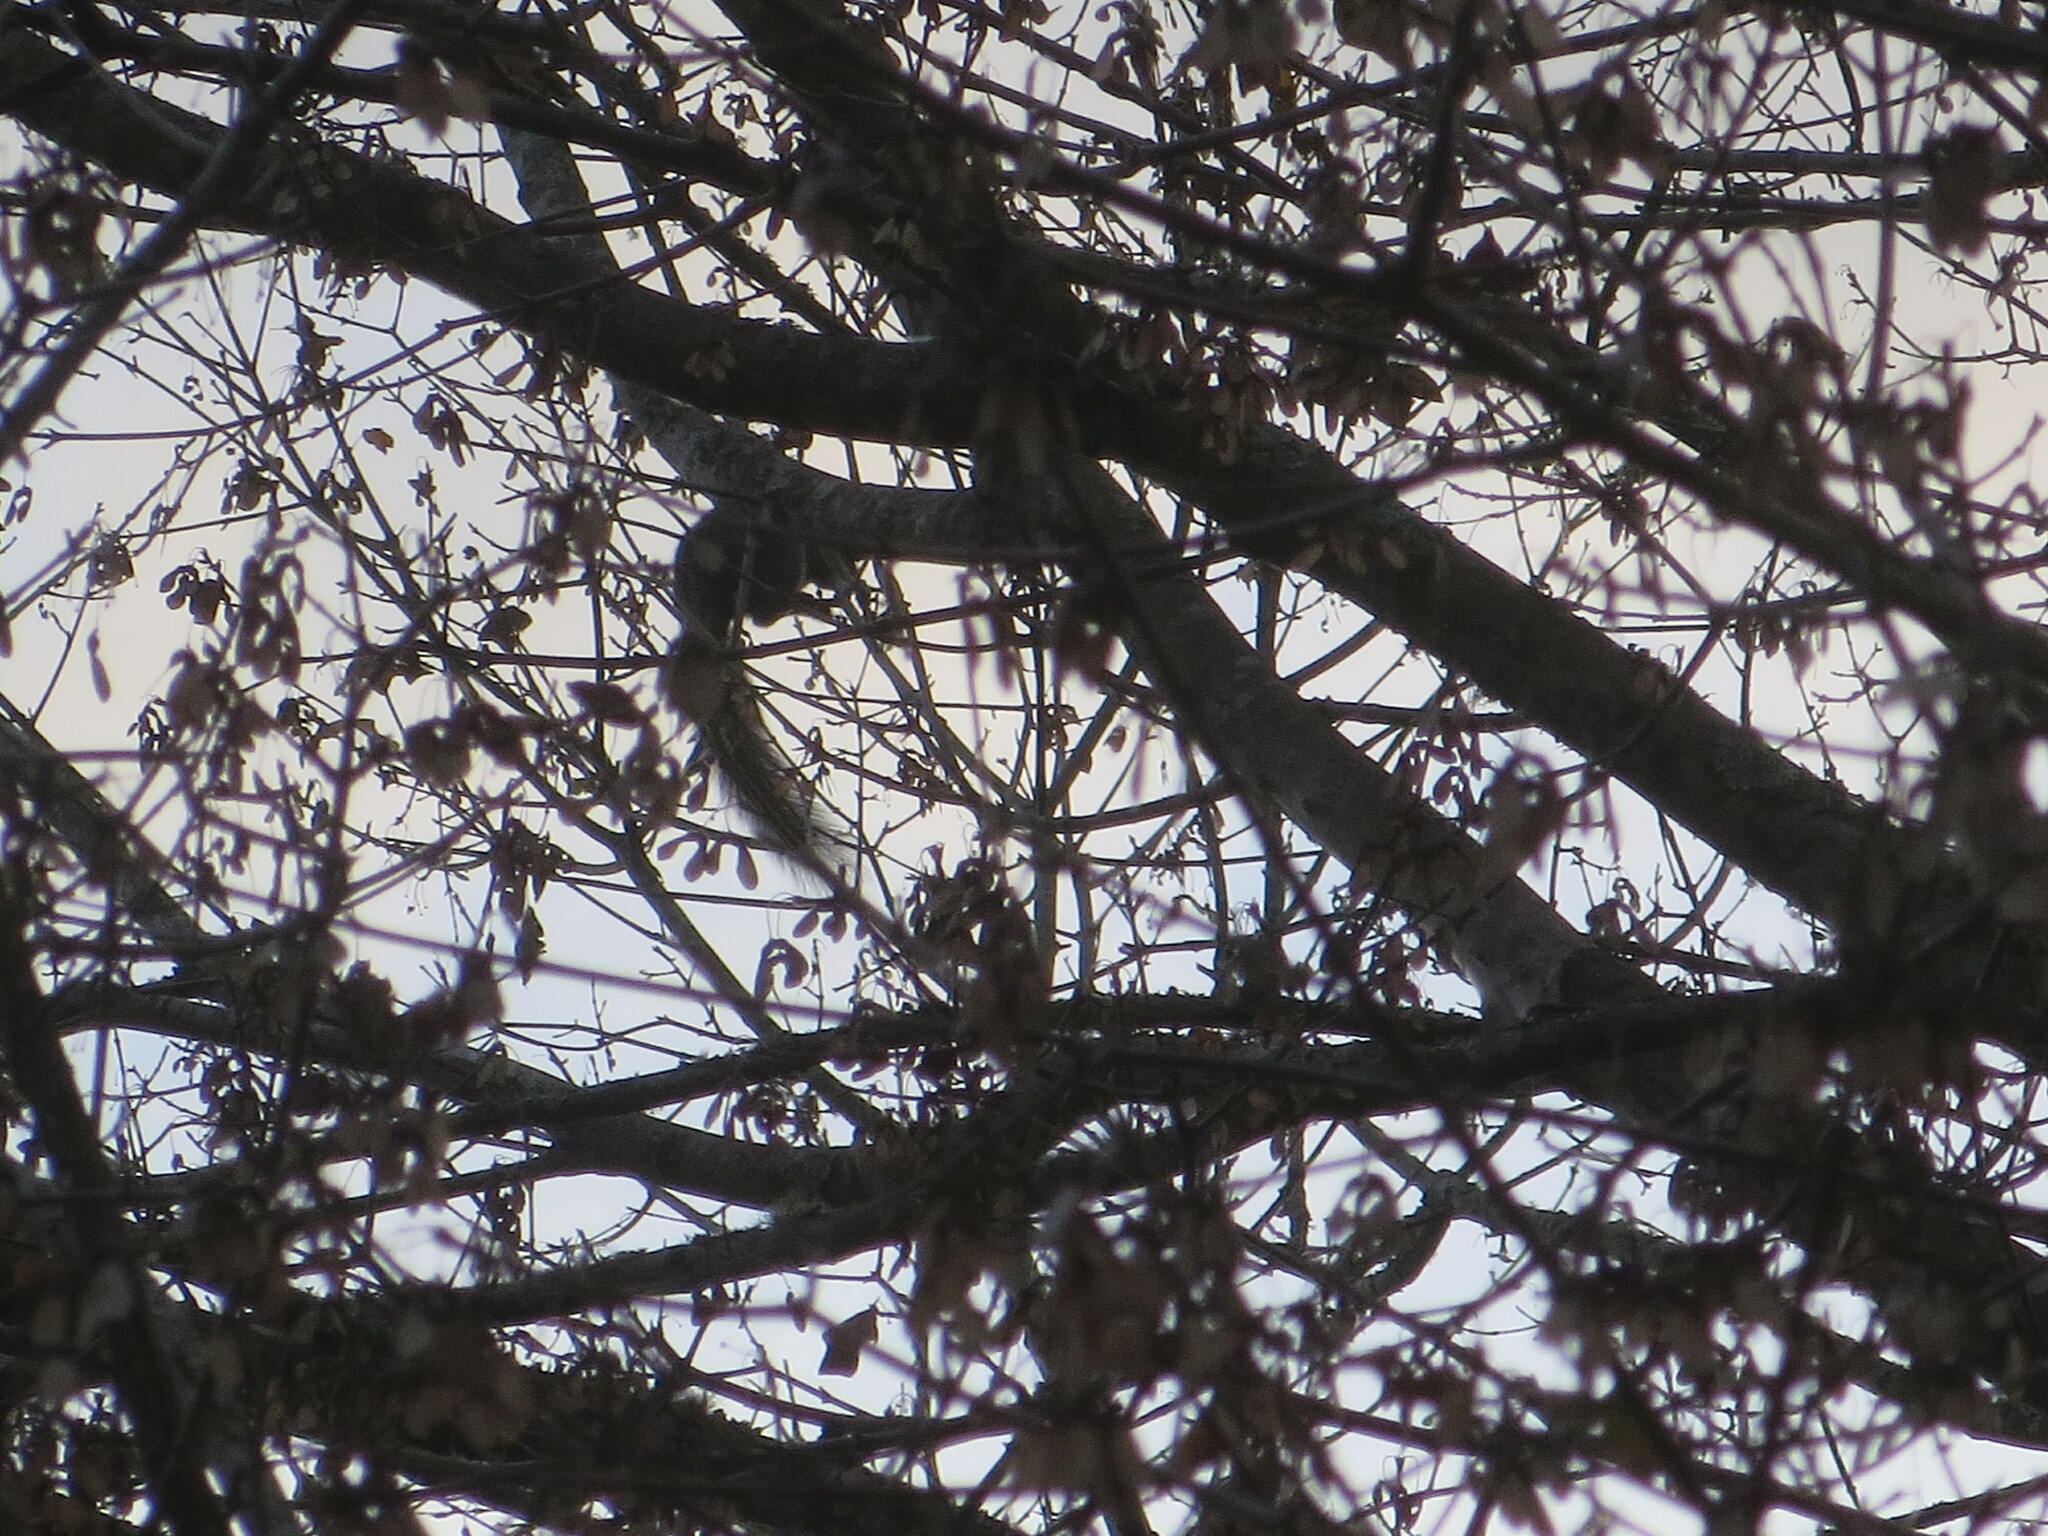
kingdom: Animalia
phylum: Chordata
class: Mammalia
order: Rodentia
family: Sciuridae
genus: Sciurus
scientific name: Sciurus carolinensis
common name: Eastern gray squirrel
